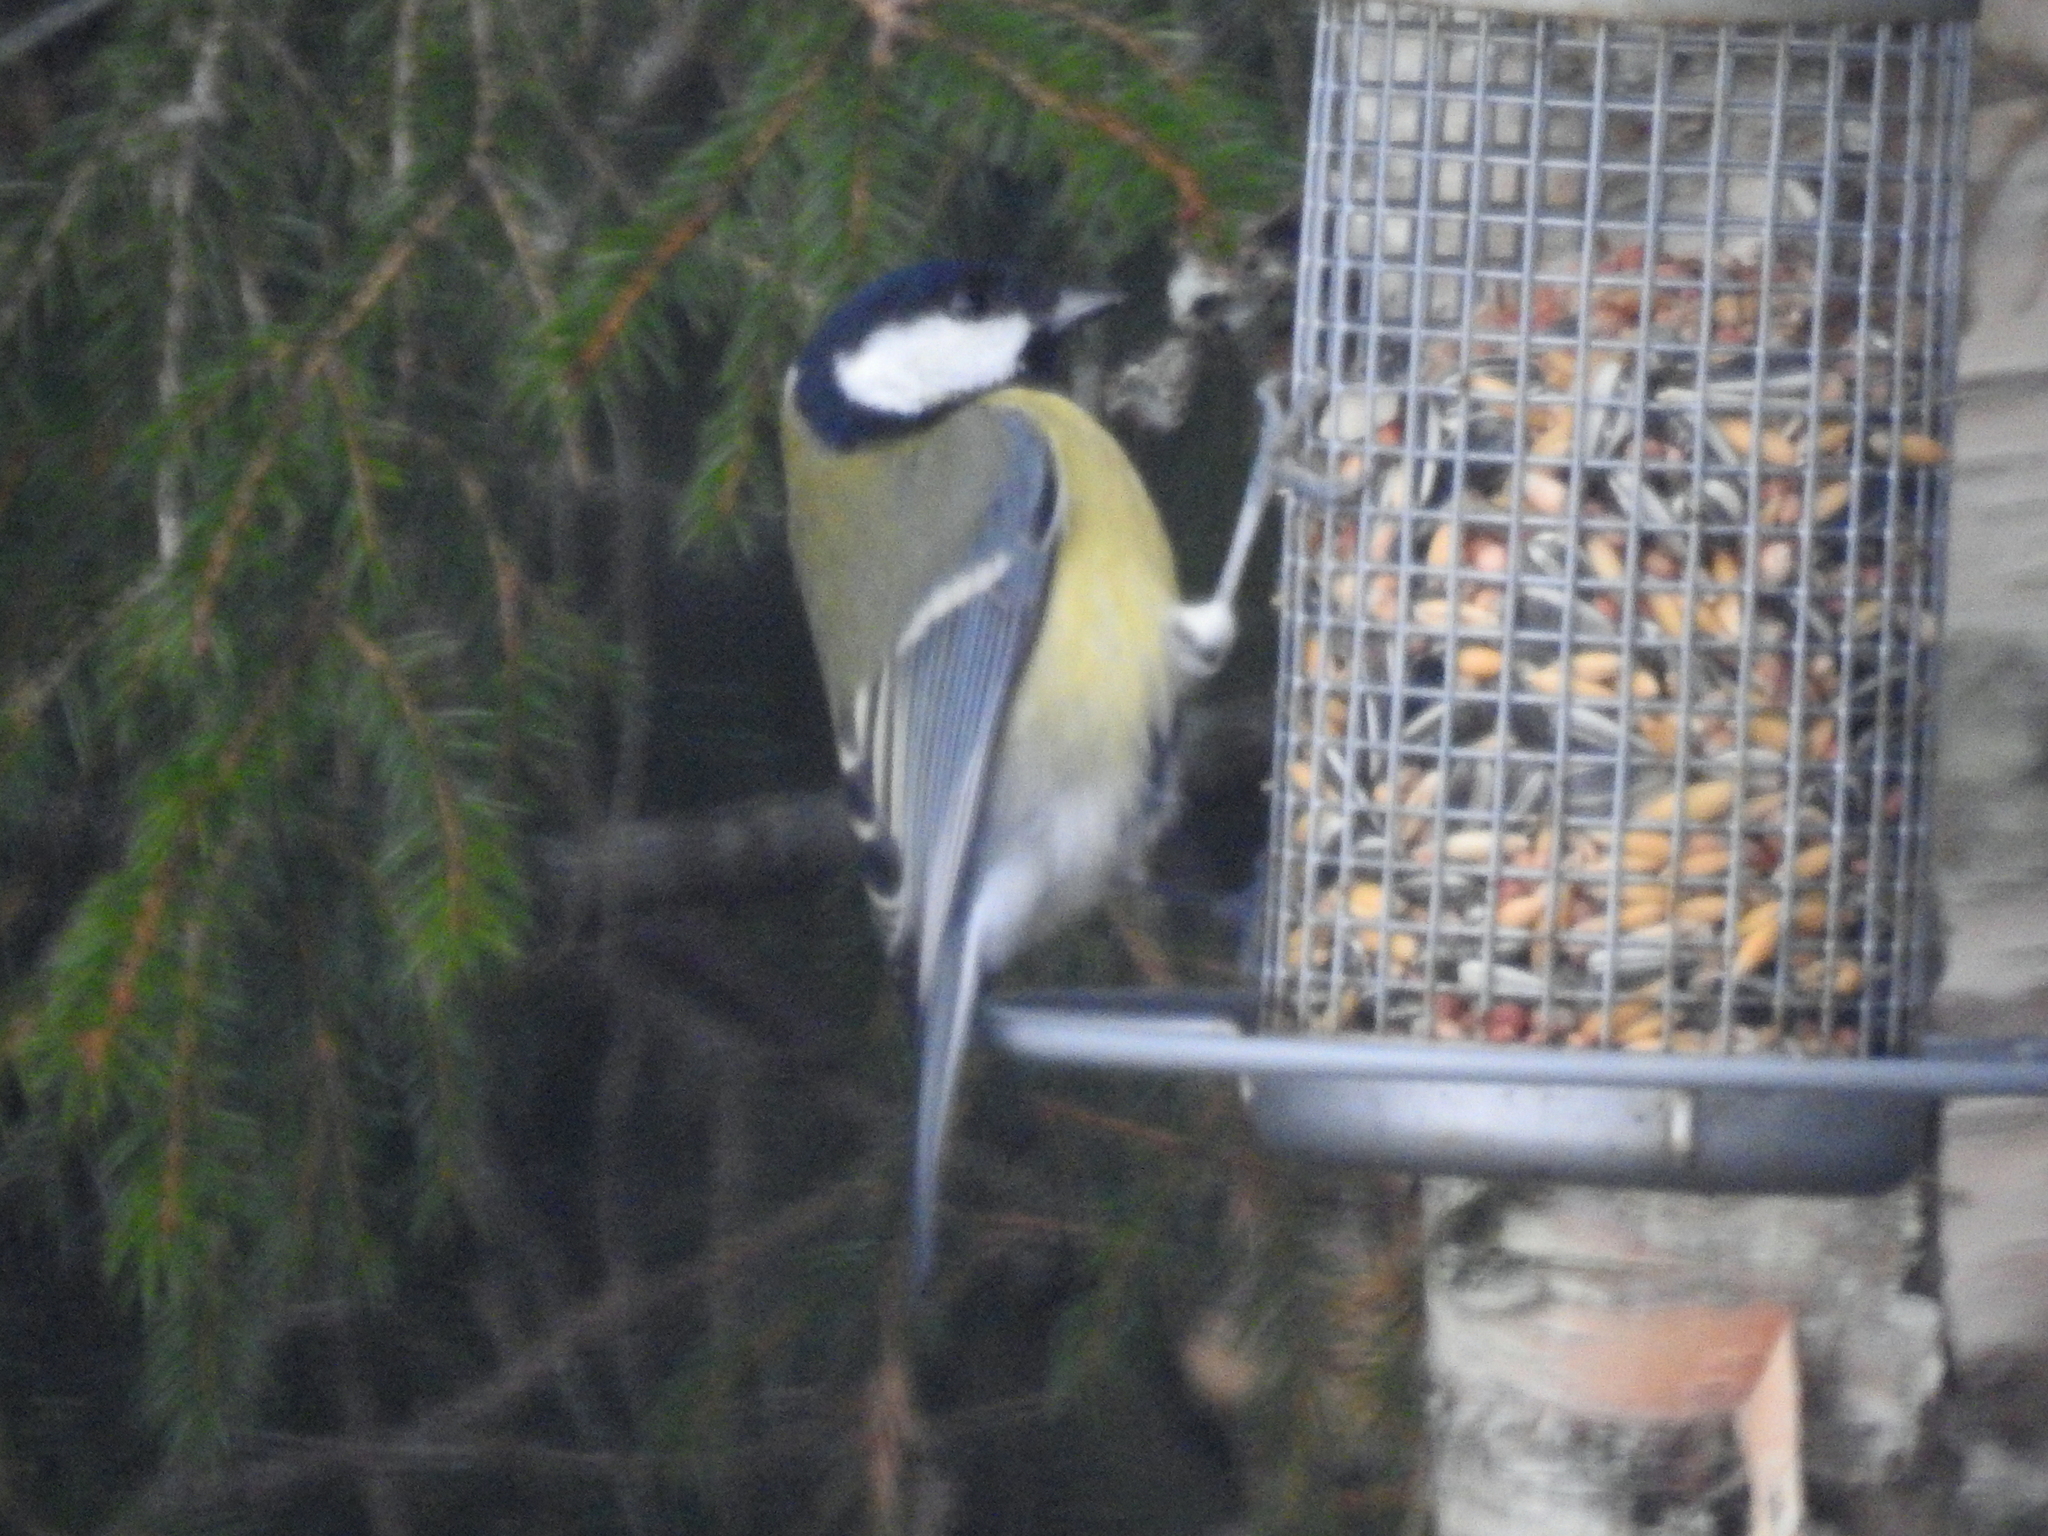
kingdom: Animalia
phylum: Chordata
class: Aves
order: Passeriformes
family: Paridae
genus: Parus
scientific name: Parus major
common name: Great tit
